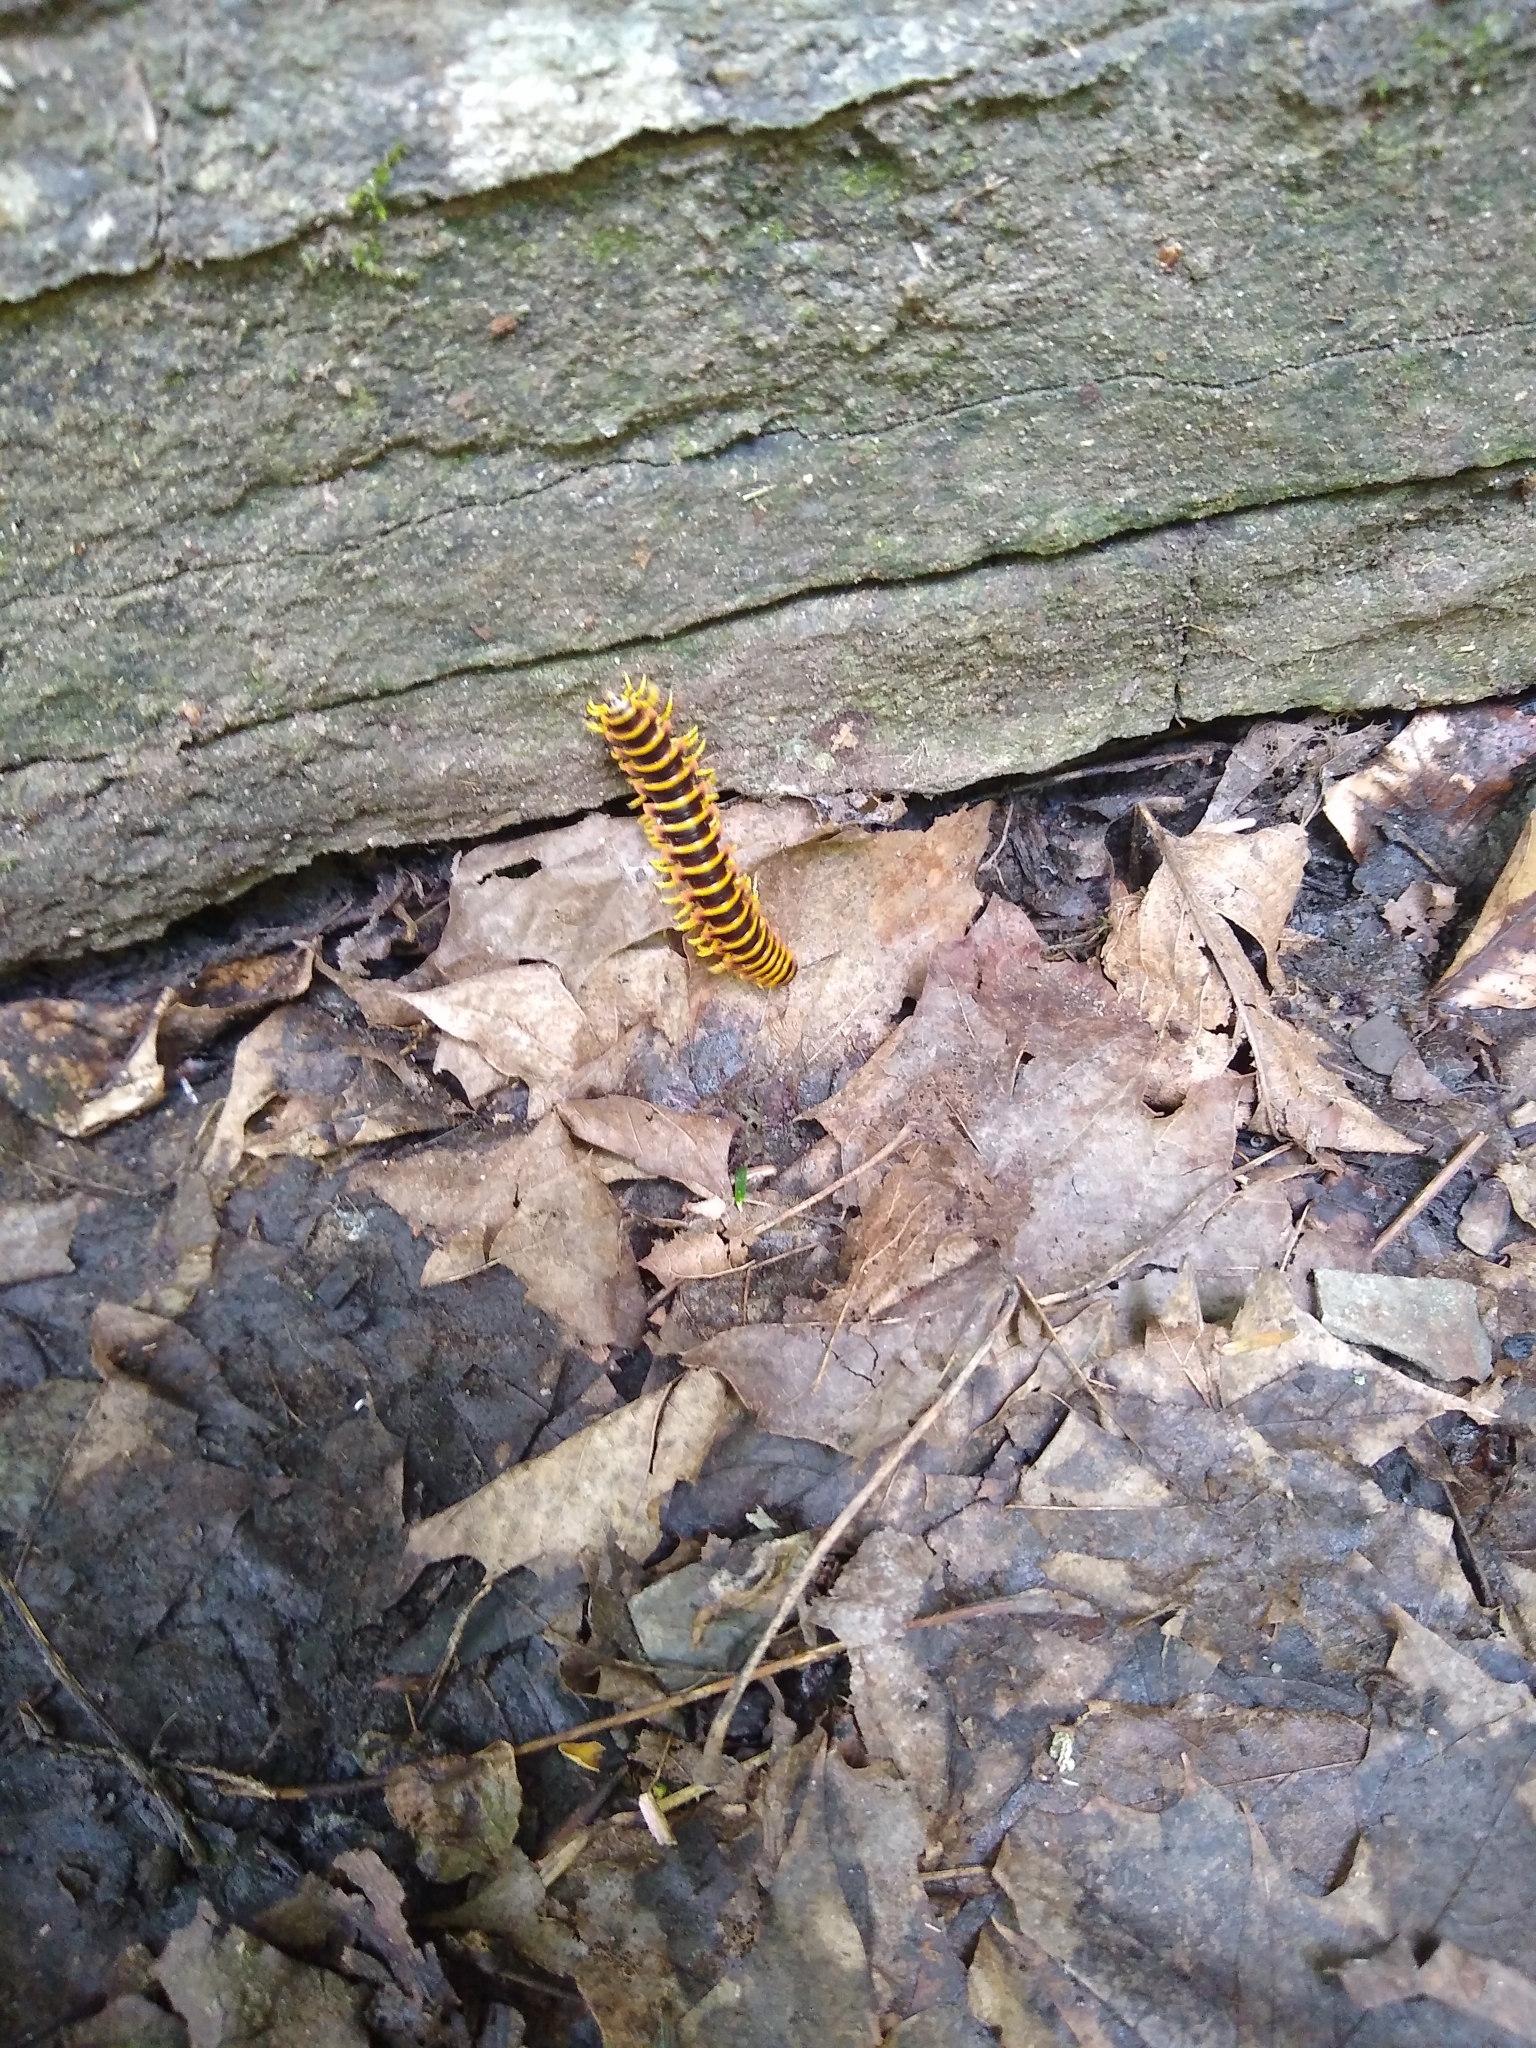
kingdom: Animalia
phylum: Arthropoda
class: Diplopoda
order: Polydesmida
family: Xystodesmidae
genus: Apheloria
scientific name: Apheloria virginiensis
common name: Black-and-gold flat millipede
